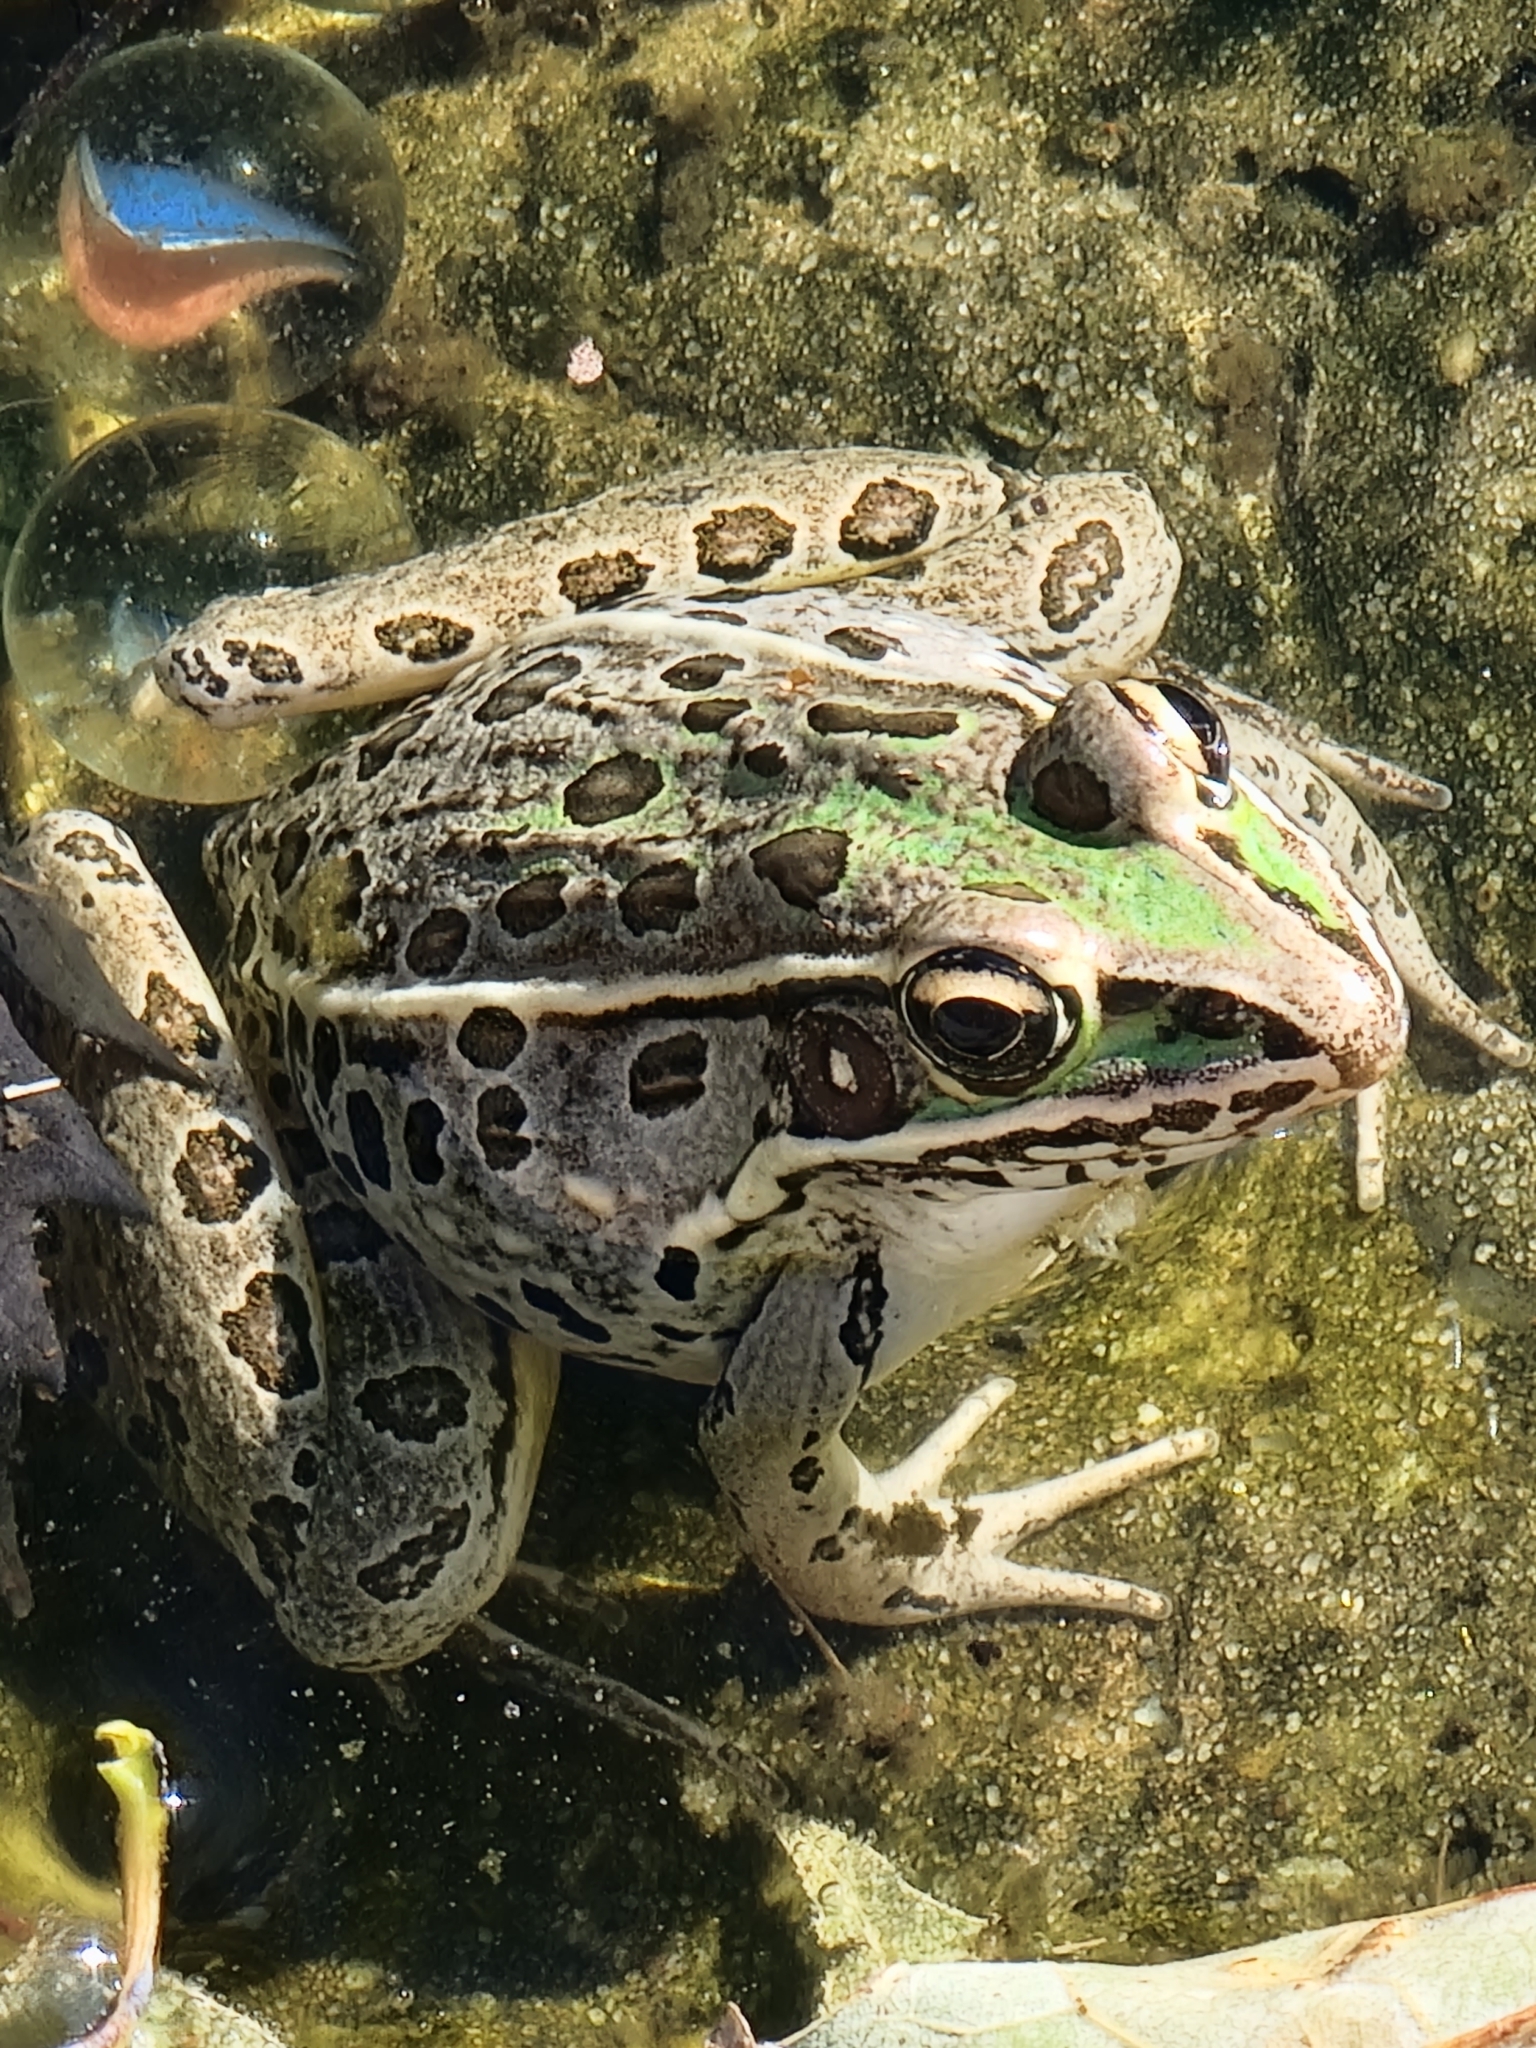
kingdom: Animalia
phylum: Chordata
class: Amphibia
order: Anura
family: Ranidae
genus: Lithobates
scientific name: Lithobates sphenocephalus
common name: Southern leopard frog
